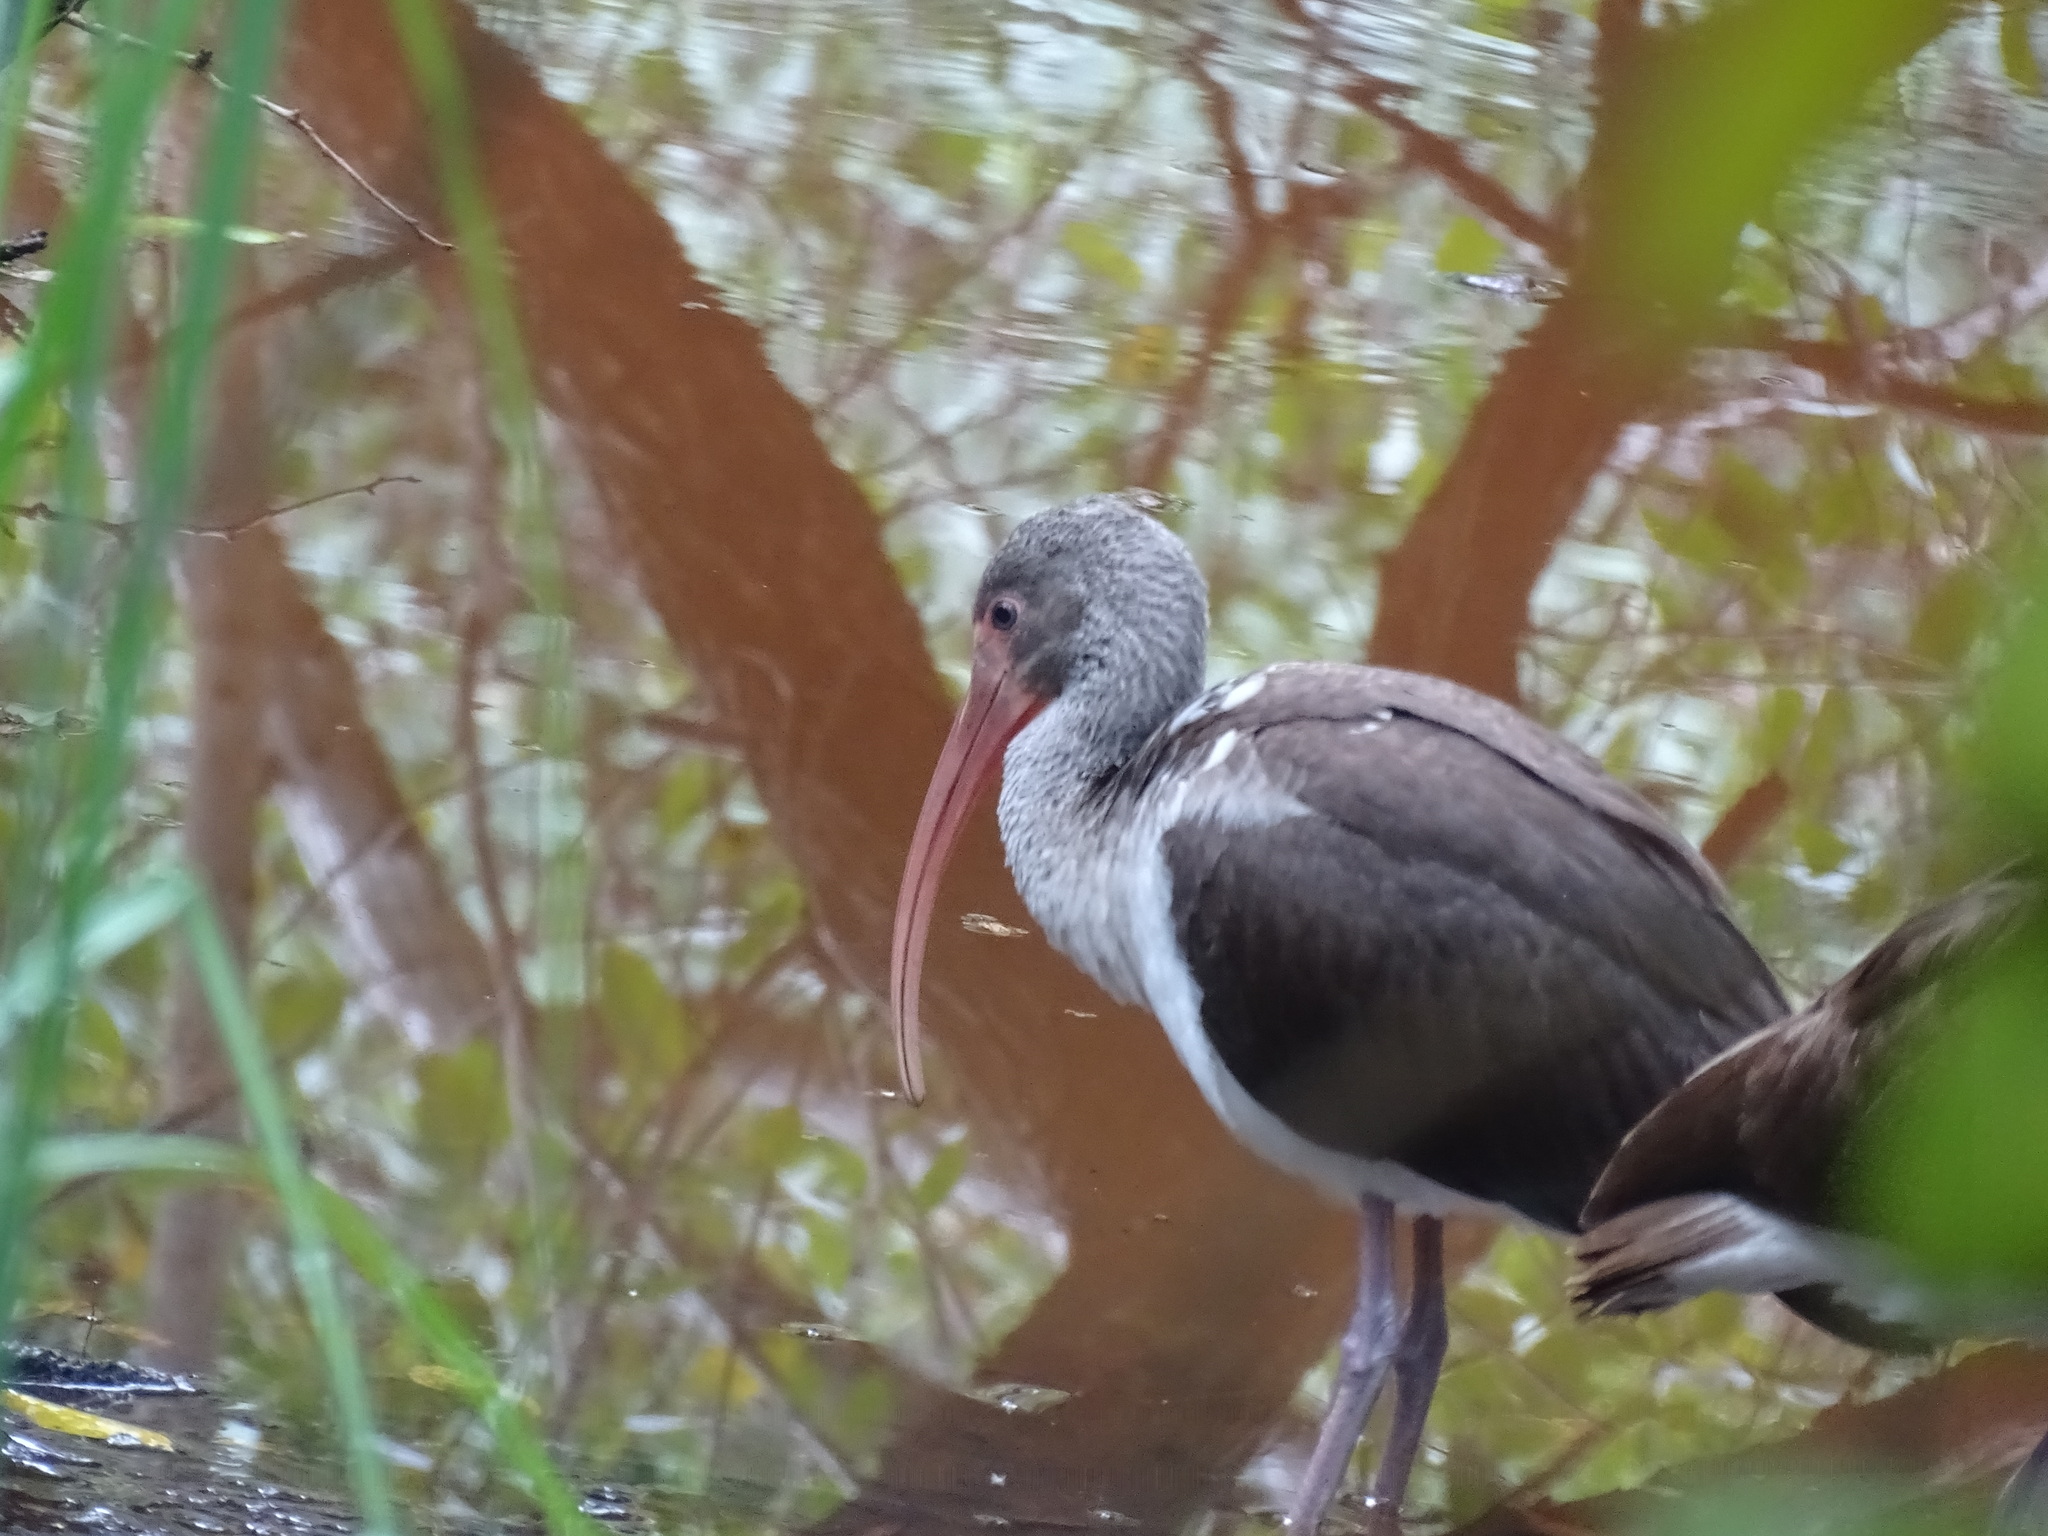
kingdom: Animalia
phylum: Chordata
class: Aves
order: Pelecaniformes
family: Threskiornithidae
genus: Eudocimus
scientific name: Eudocimus albus
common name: White ibis
